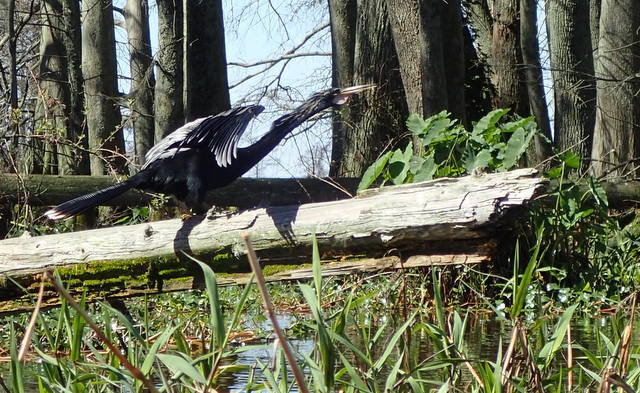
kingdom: Animalia
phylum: Chordata
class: Aves
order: Suliformes
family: Anhingidae
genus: Anhinga
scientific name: Anhinga anhinga
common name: Anhinga
